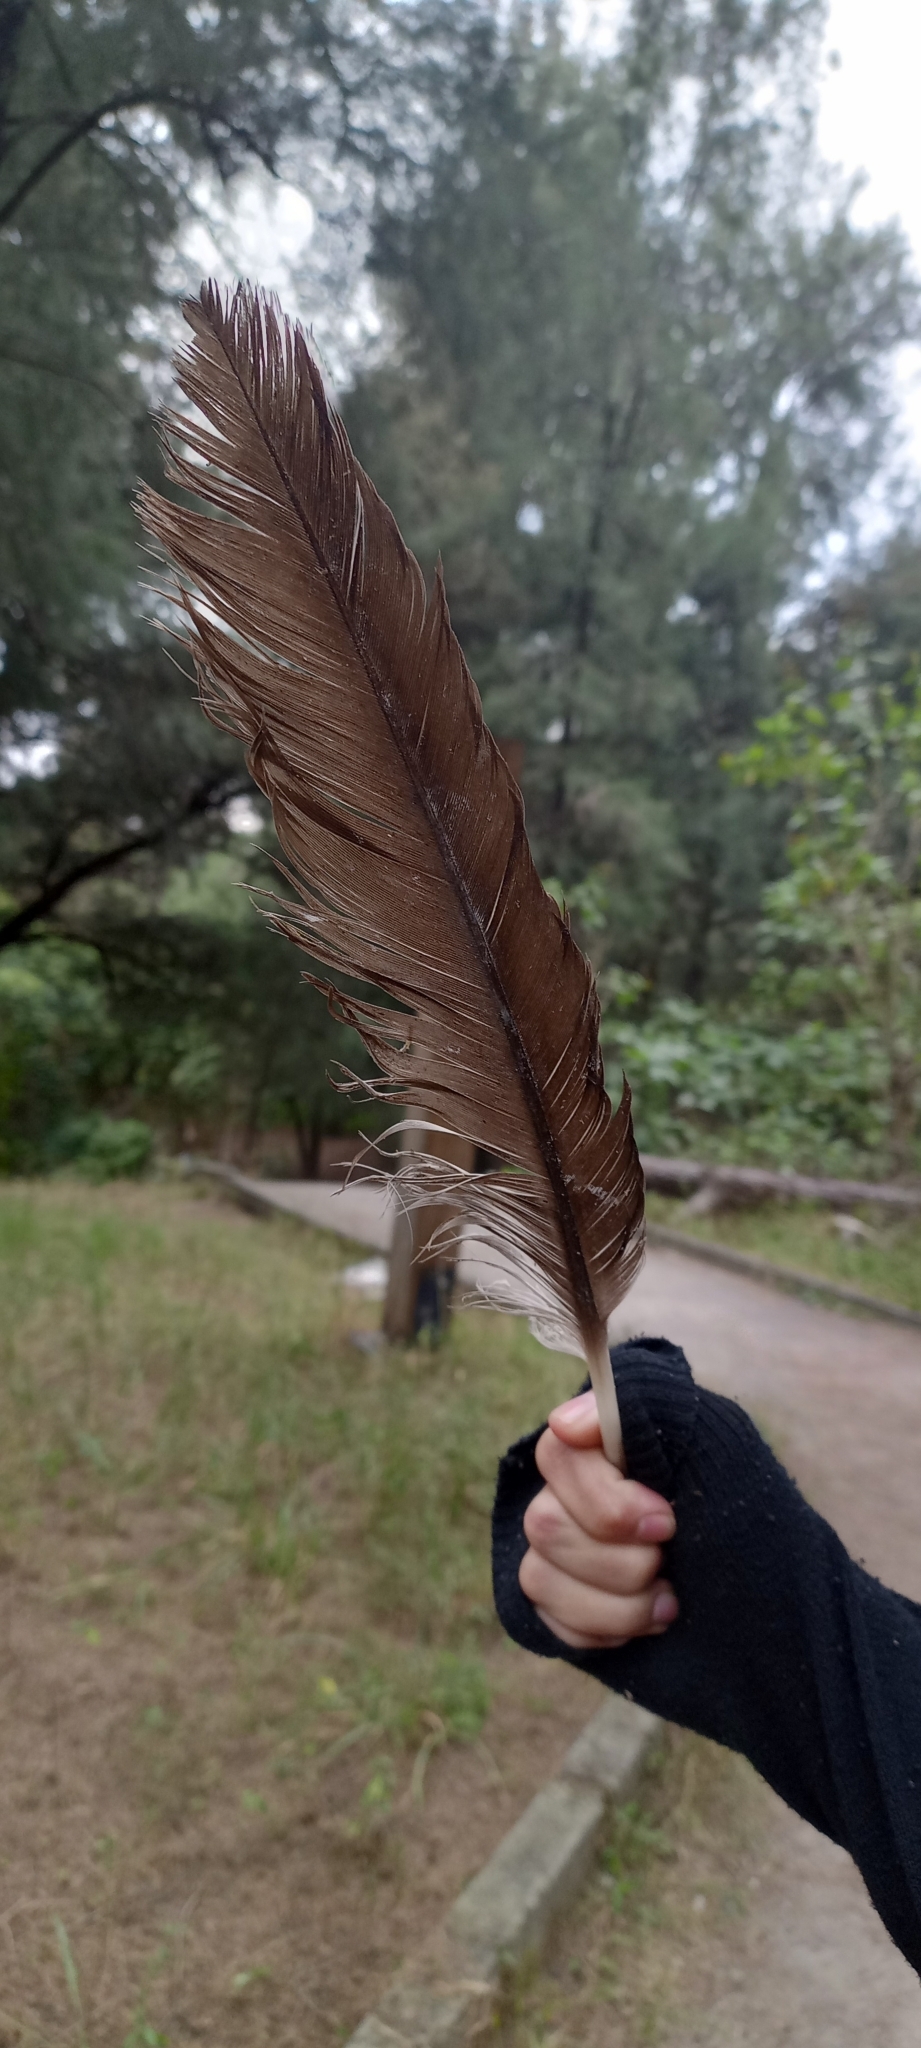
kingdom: Animalia
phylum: Chordata
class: Aves
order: Accipitriformes
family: Cathartidae
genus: Cathartes
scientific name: Cathartes aura
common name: Turkey vulture
